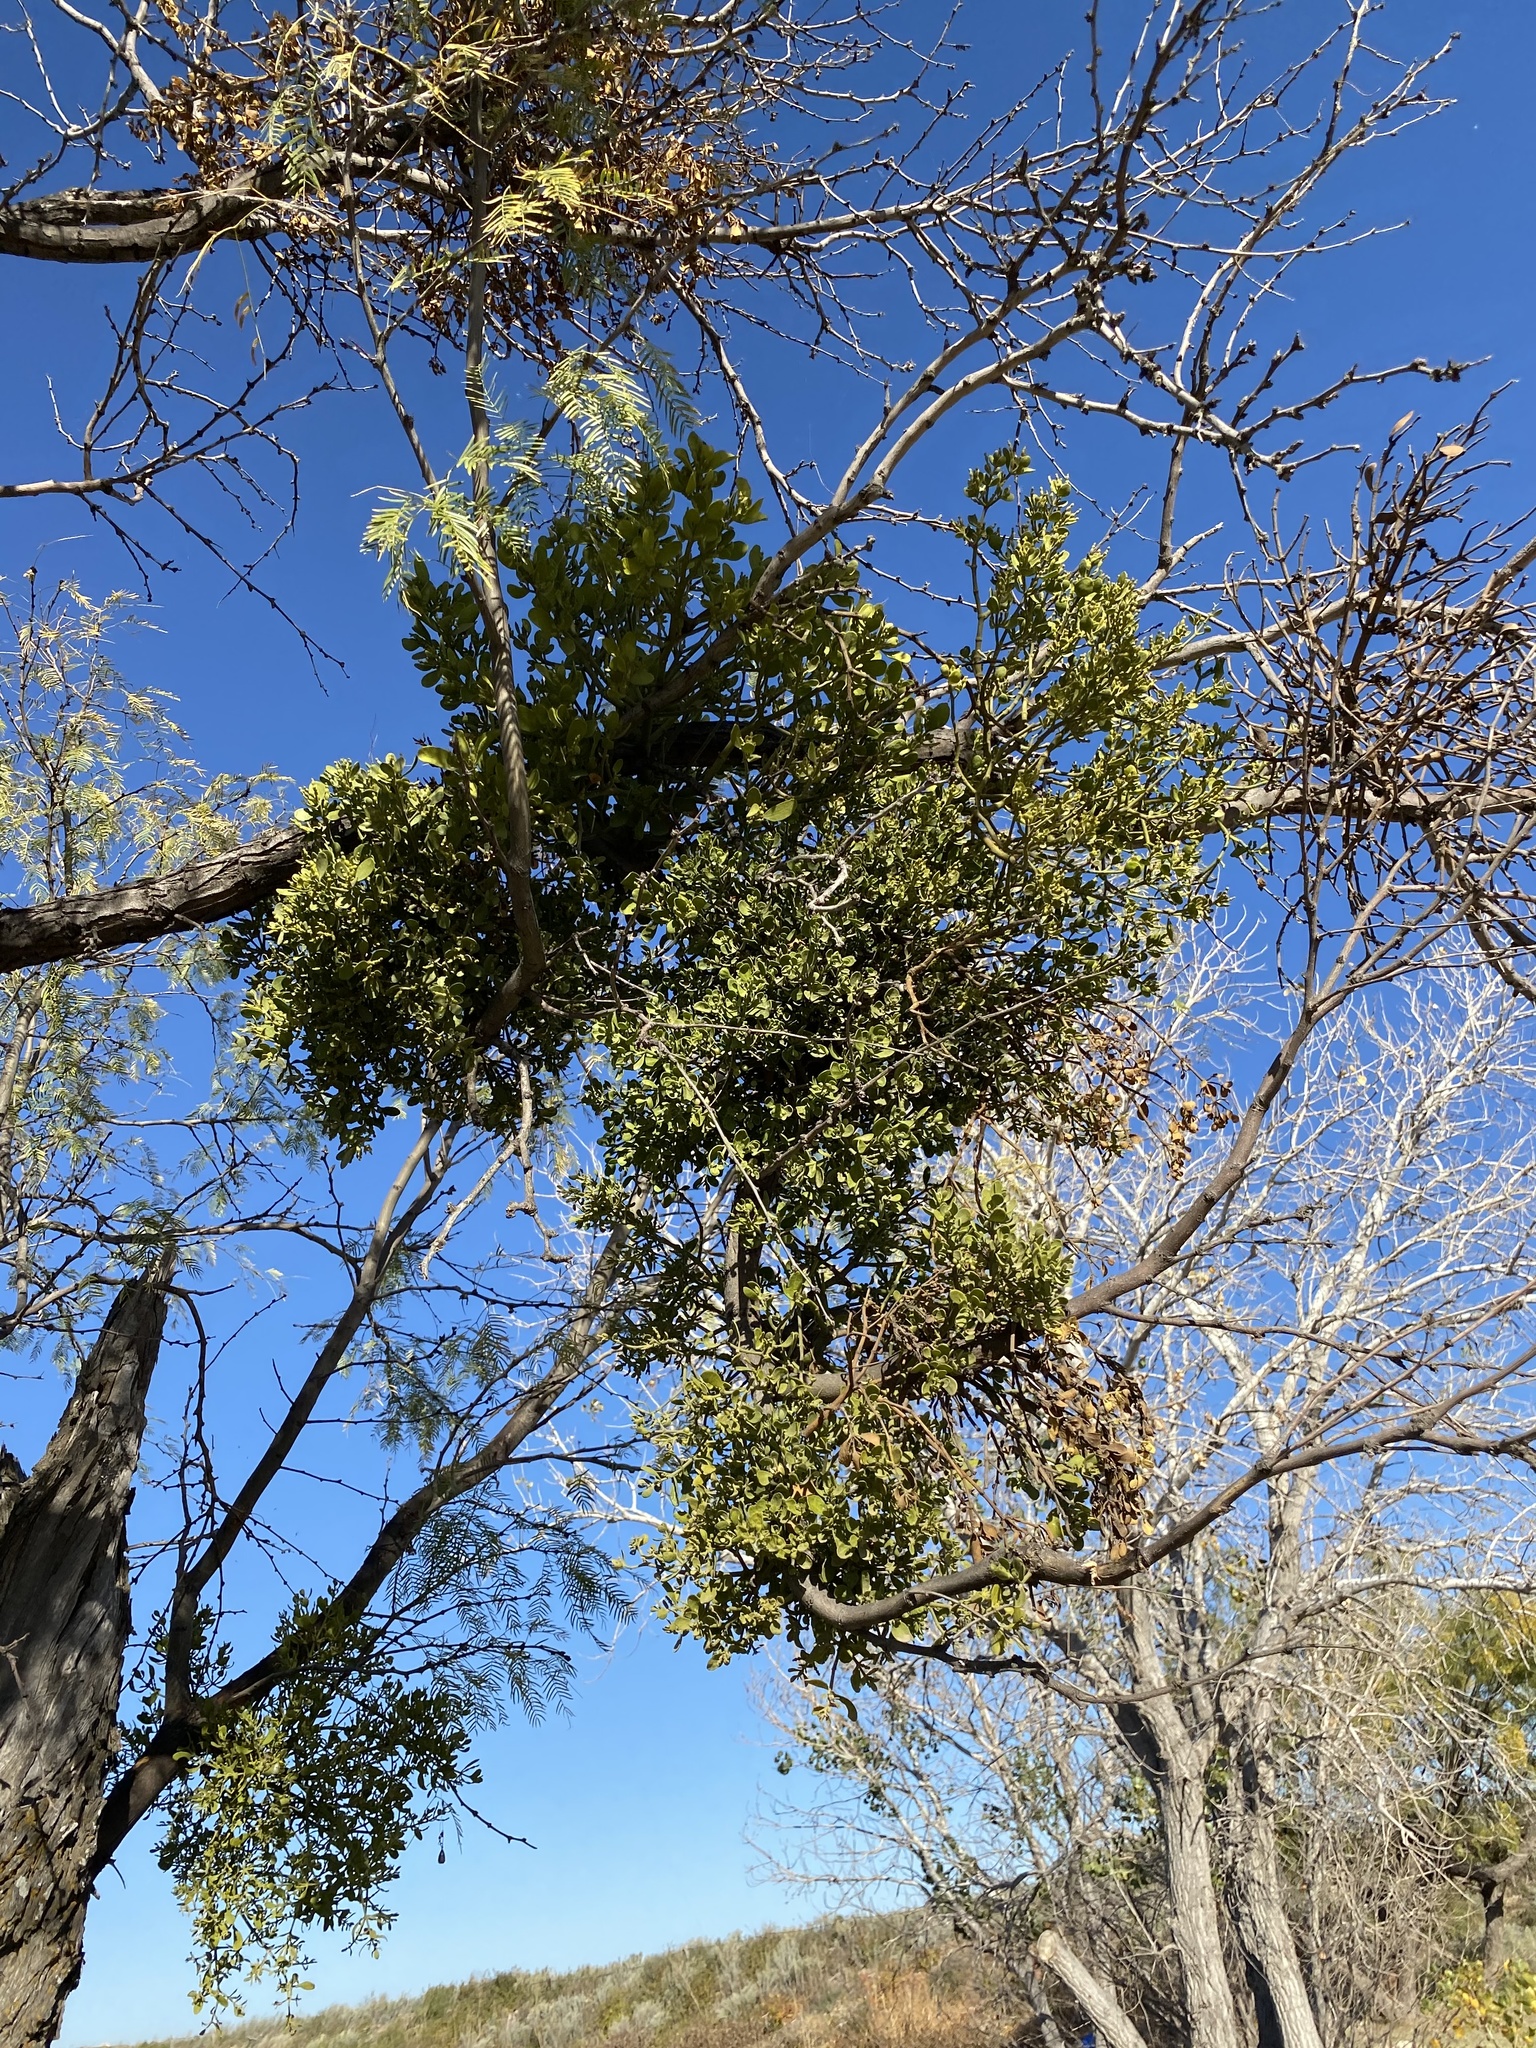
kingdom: Plantae
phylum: Tracheophyta
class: Magnoliopsida
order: Santalales
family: Viscaceae
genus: Phoradendron
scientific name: Phoradendron leucarpum
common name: Pacific mistletoe
